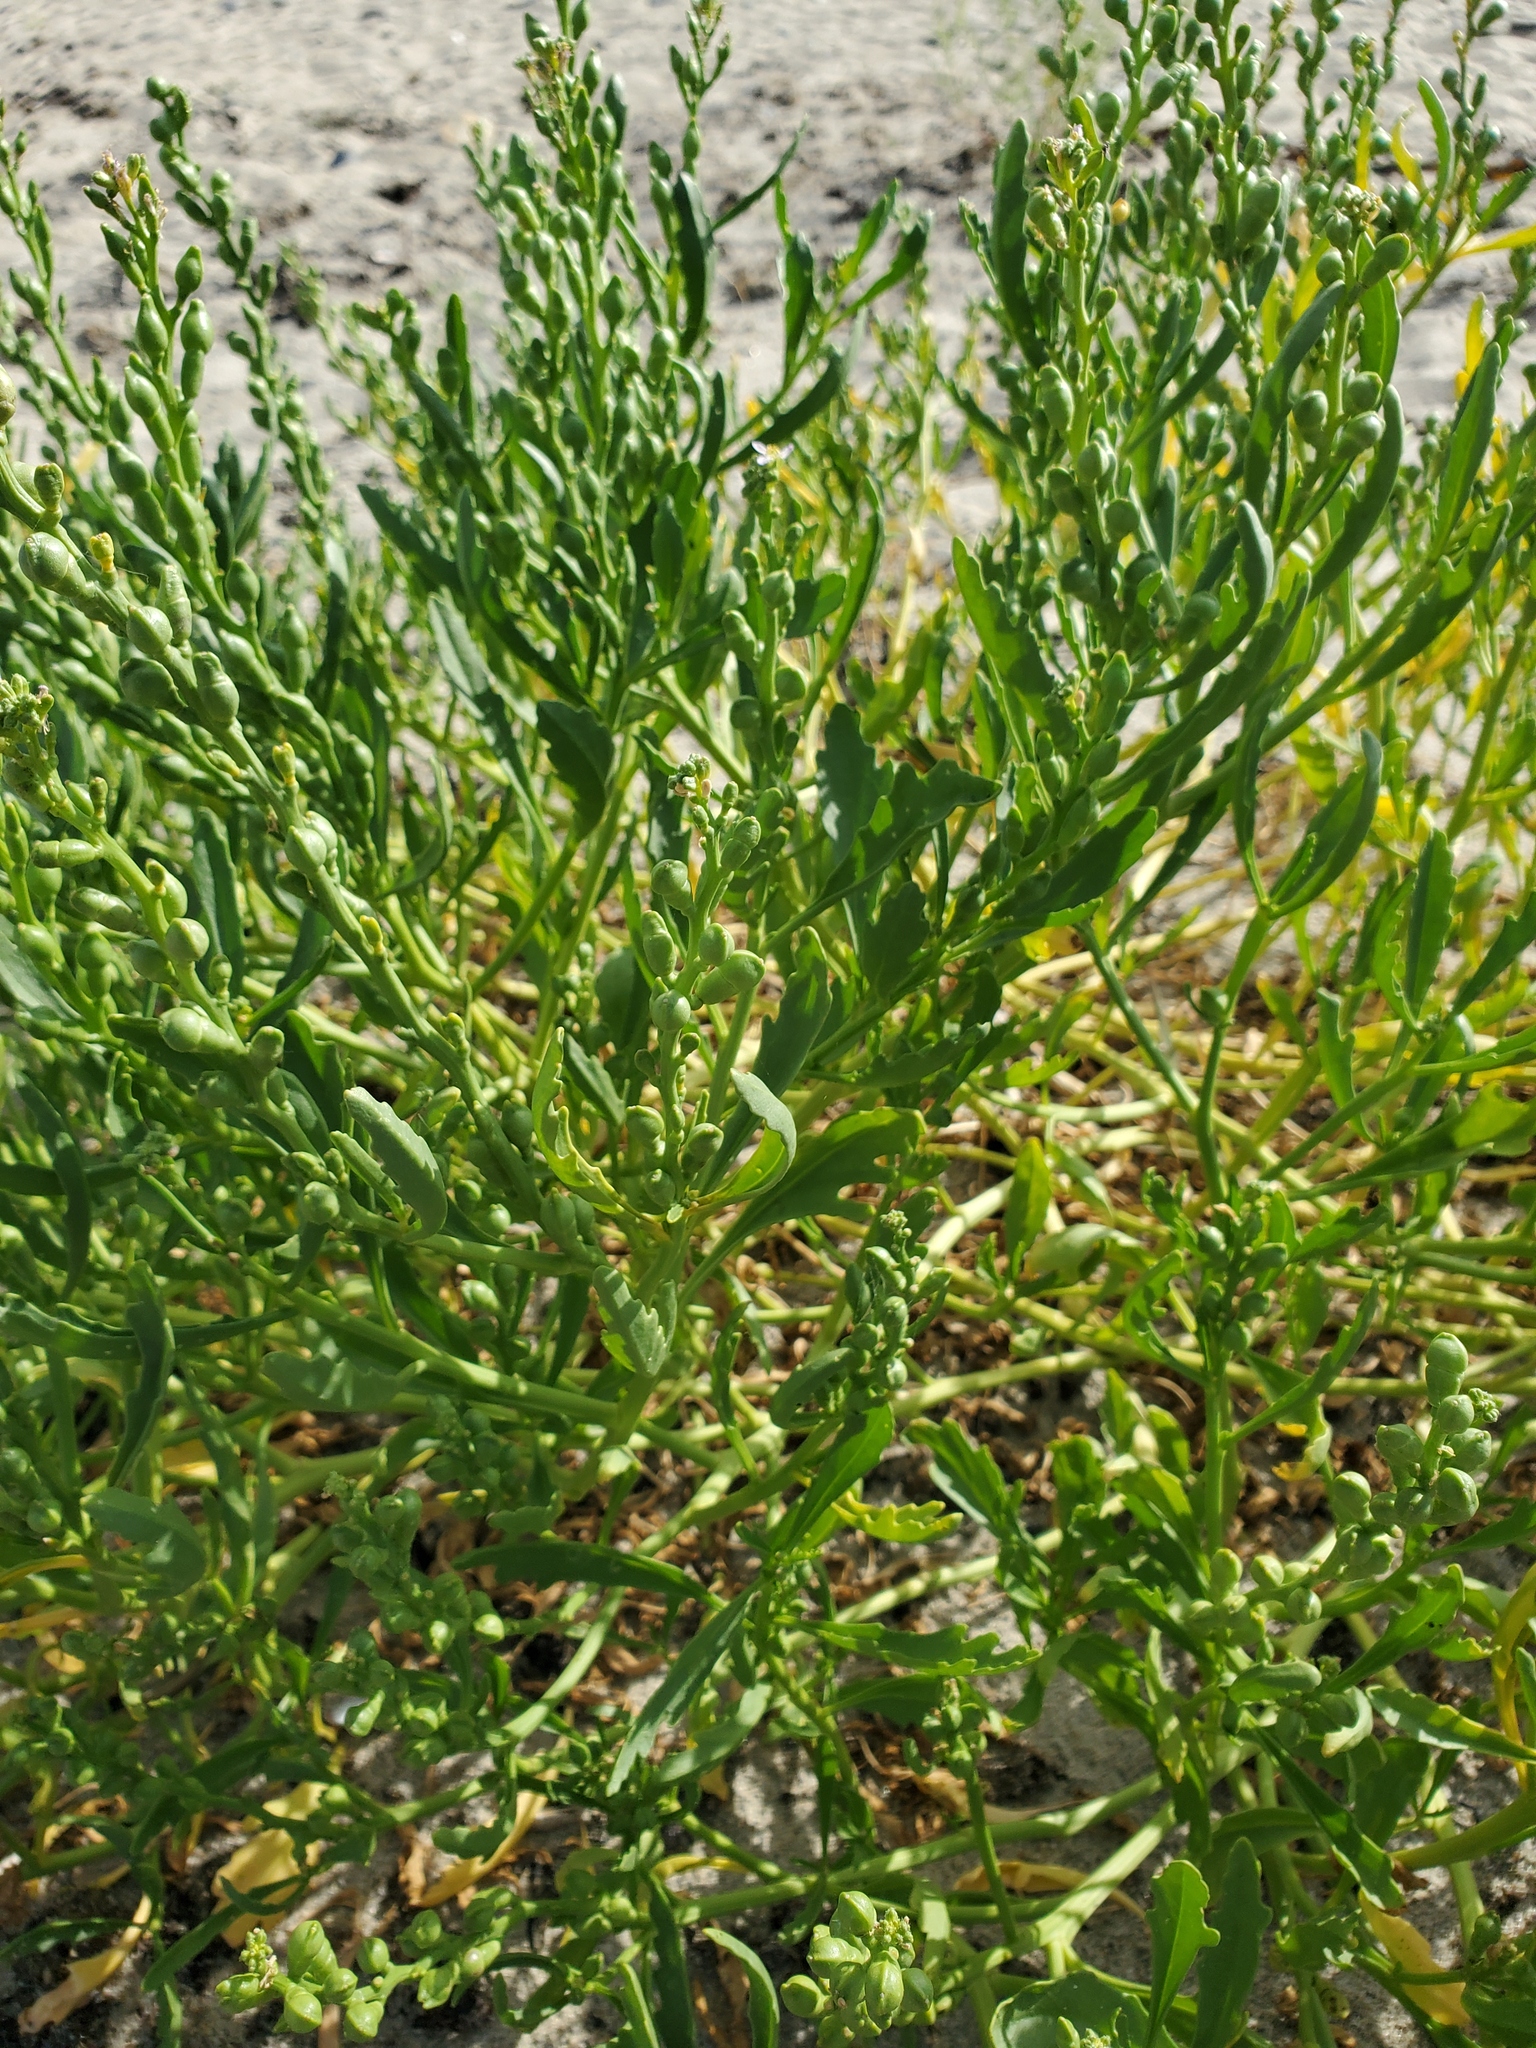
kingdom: Plantae
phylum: Tracheophyta
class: Magnoliopsida
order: Brassicales
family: Brassicaceae
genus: Cakile
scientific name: Cakile edentula
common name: American sea rocket
